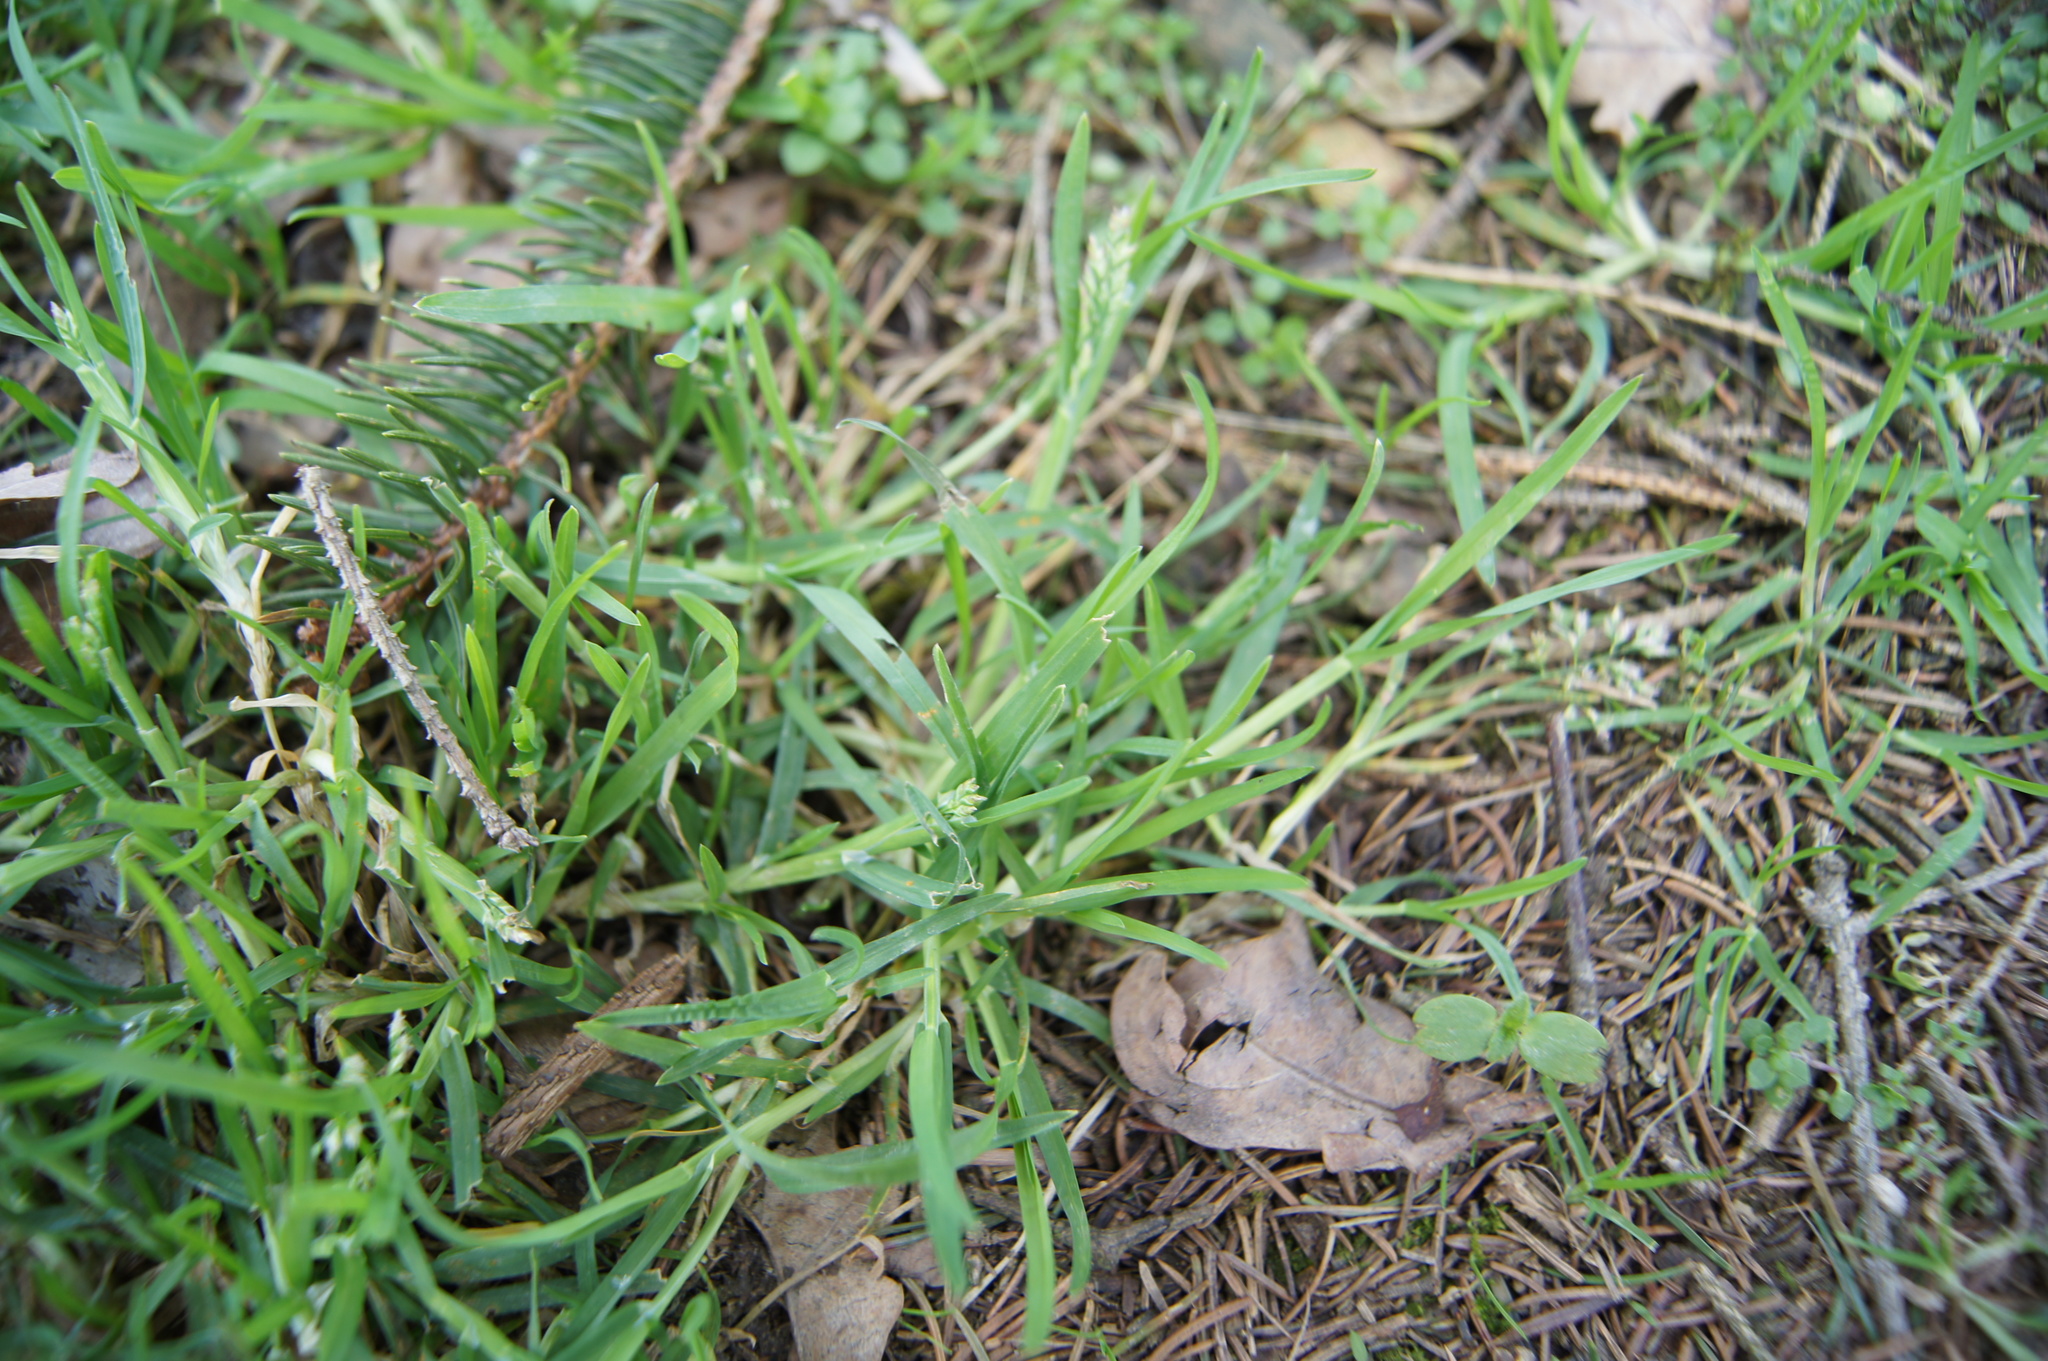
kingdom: Plantae
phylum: Tracheophyta
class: Liliopsida
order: Poales
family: Poaceae
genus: Poa
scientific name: Poa annua
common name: Annual bluegrass
